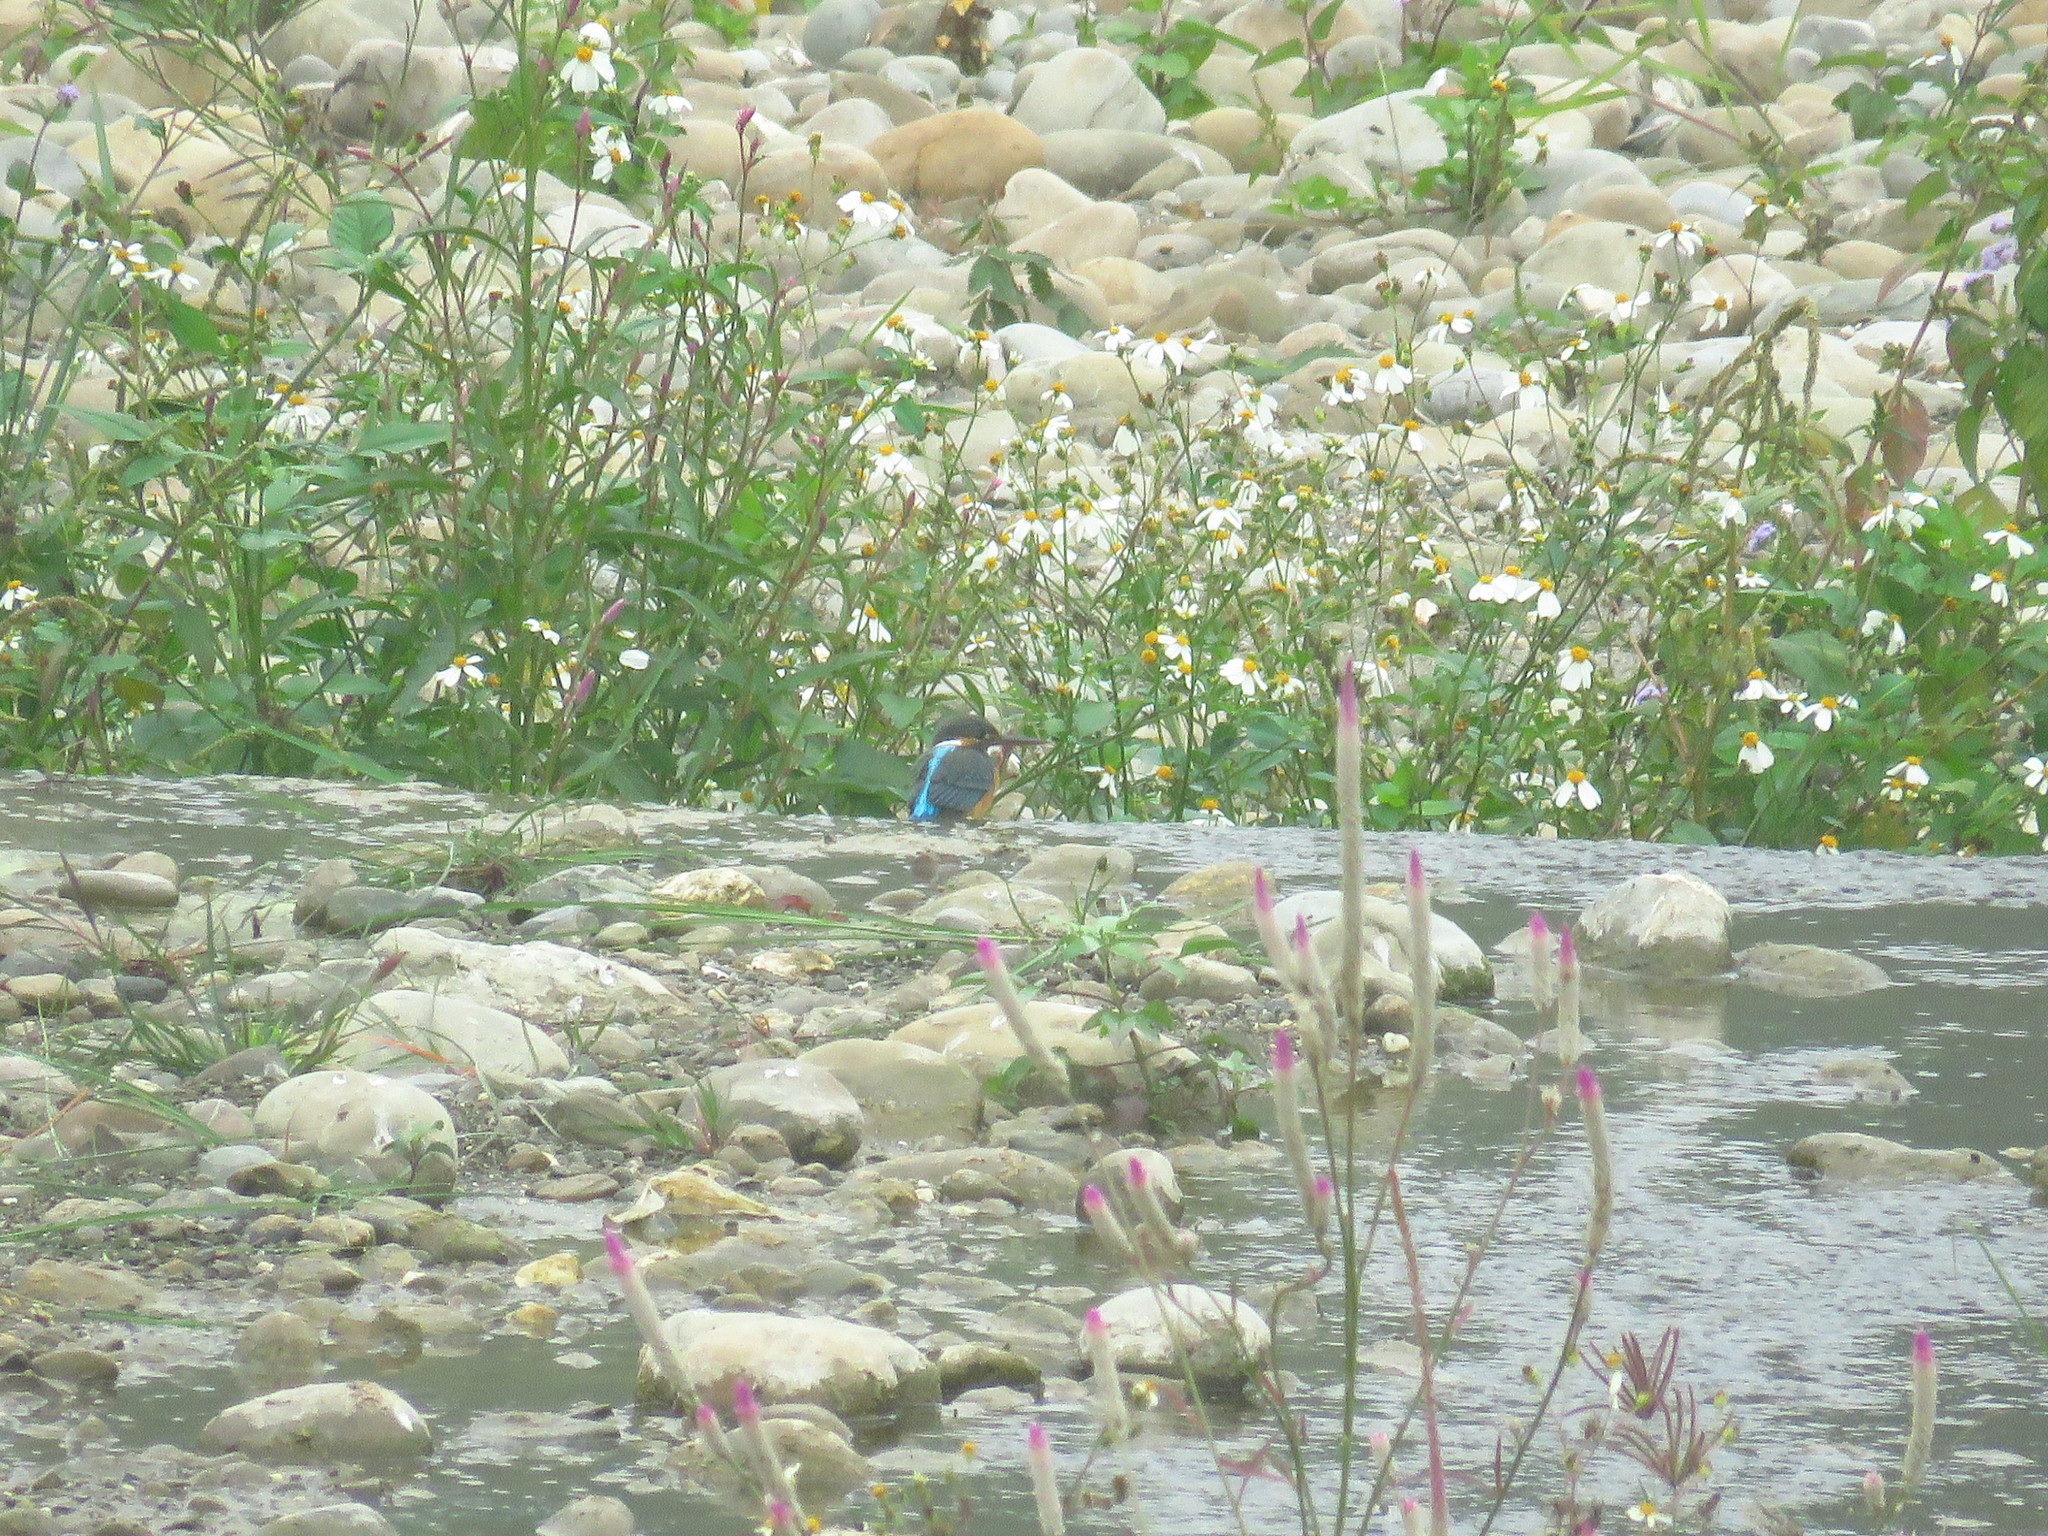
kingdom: Animalia
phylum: Chordata
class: Aves
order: Coraciiformes
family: Alcedinidae
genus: Alcedo
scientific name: Alcedo atthis
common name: Common kingfisher
